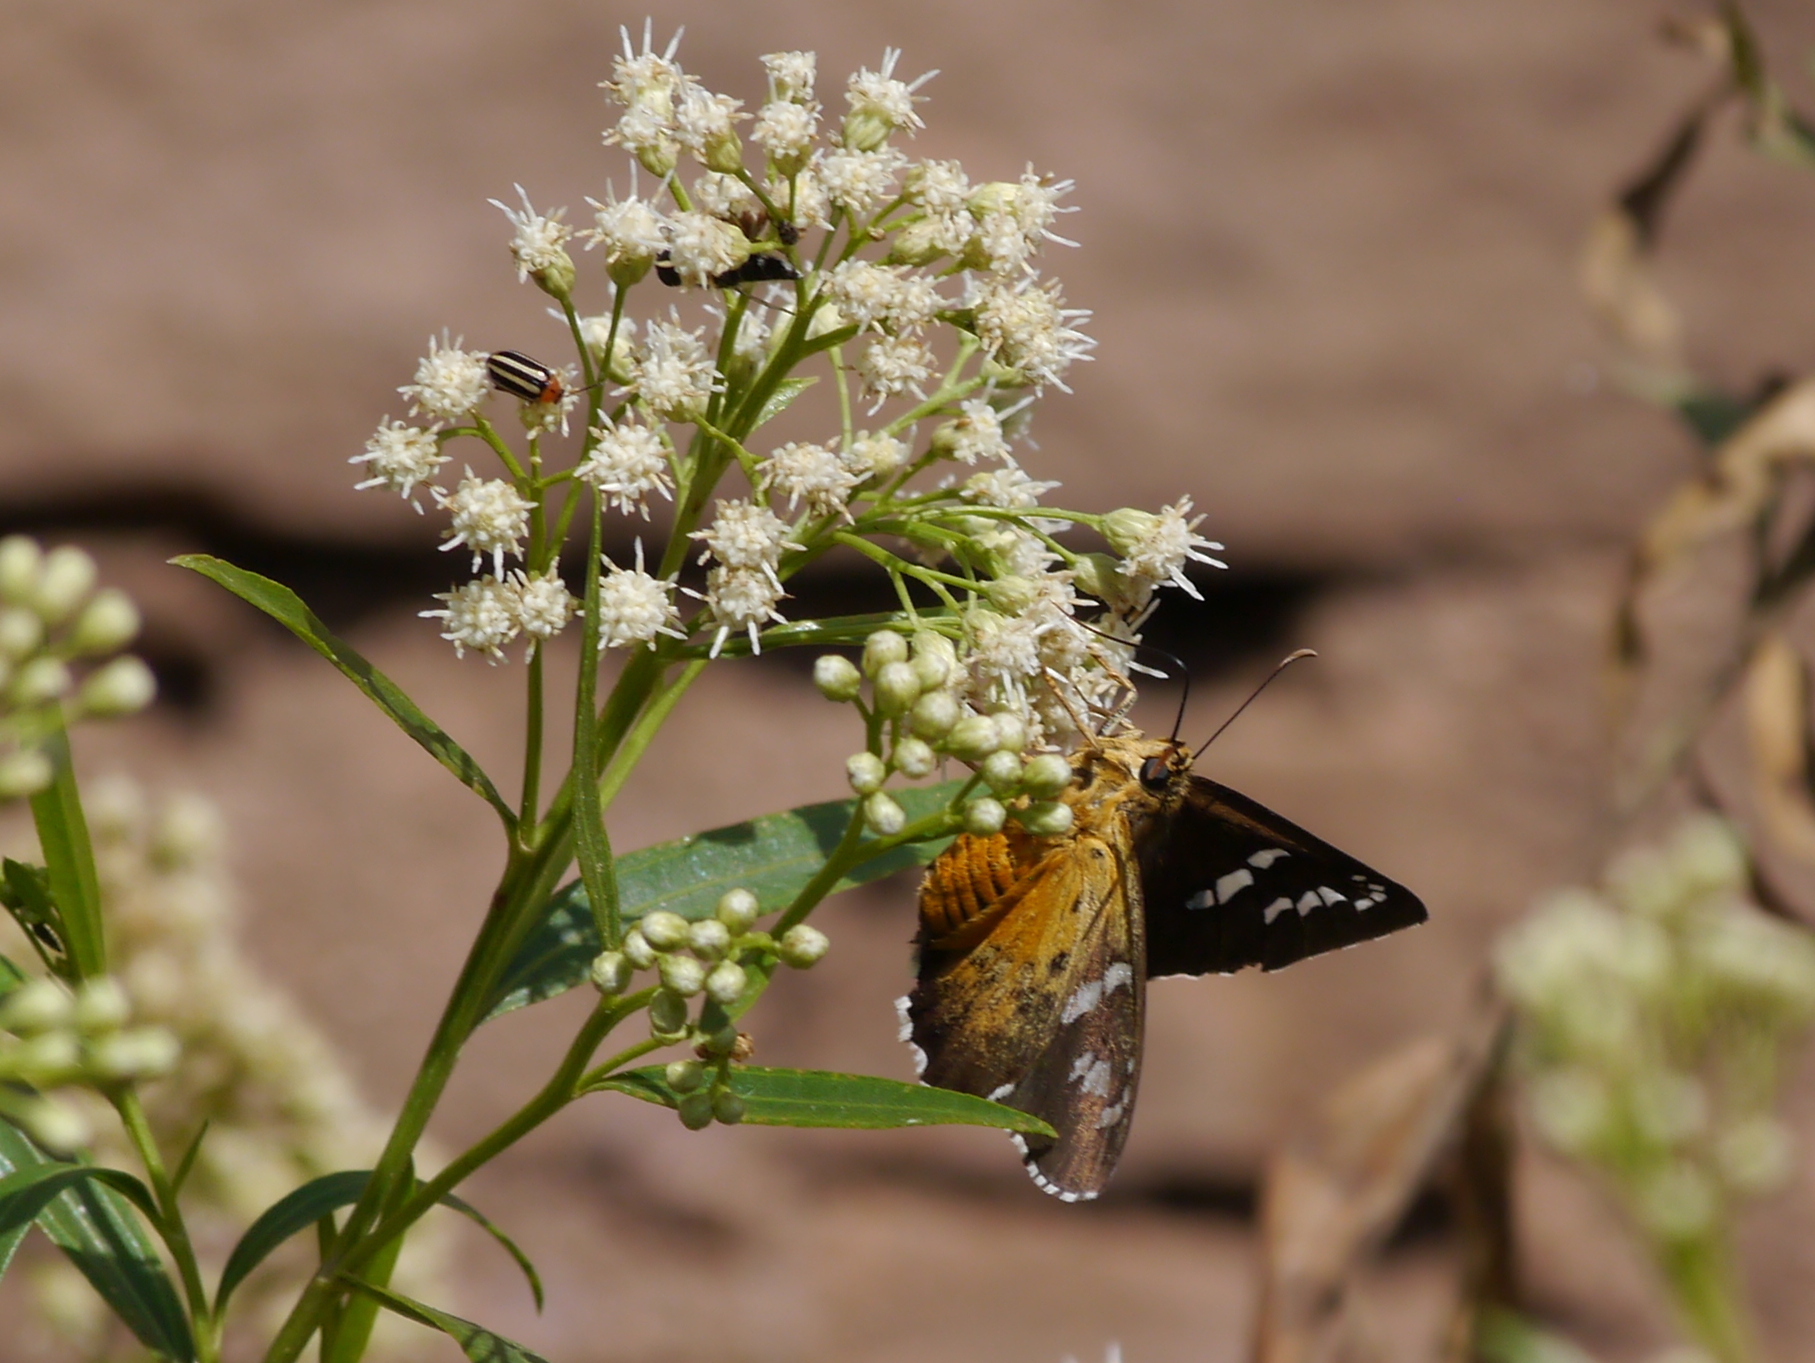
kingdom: Animalia
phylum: Arthropoda
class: Insecta
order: Lepidoptera
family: Hesperiidae
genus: Pyrrhopyge
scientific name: Pyrrhopyge araxes
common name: Dull firetip
